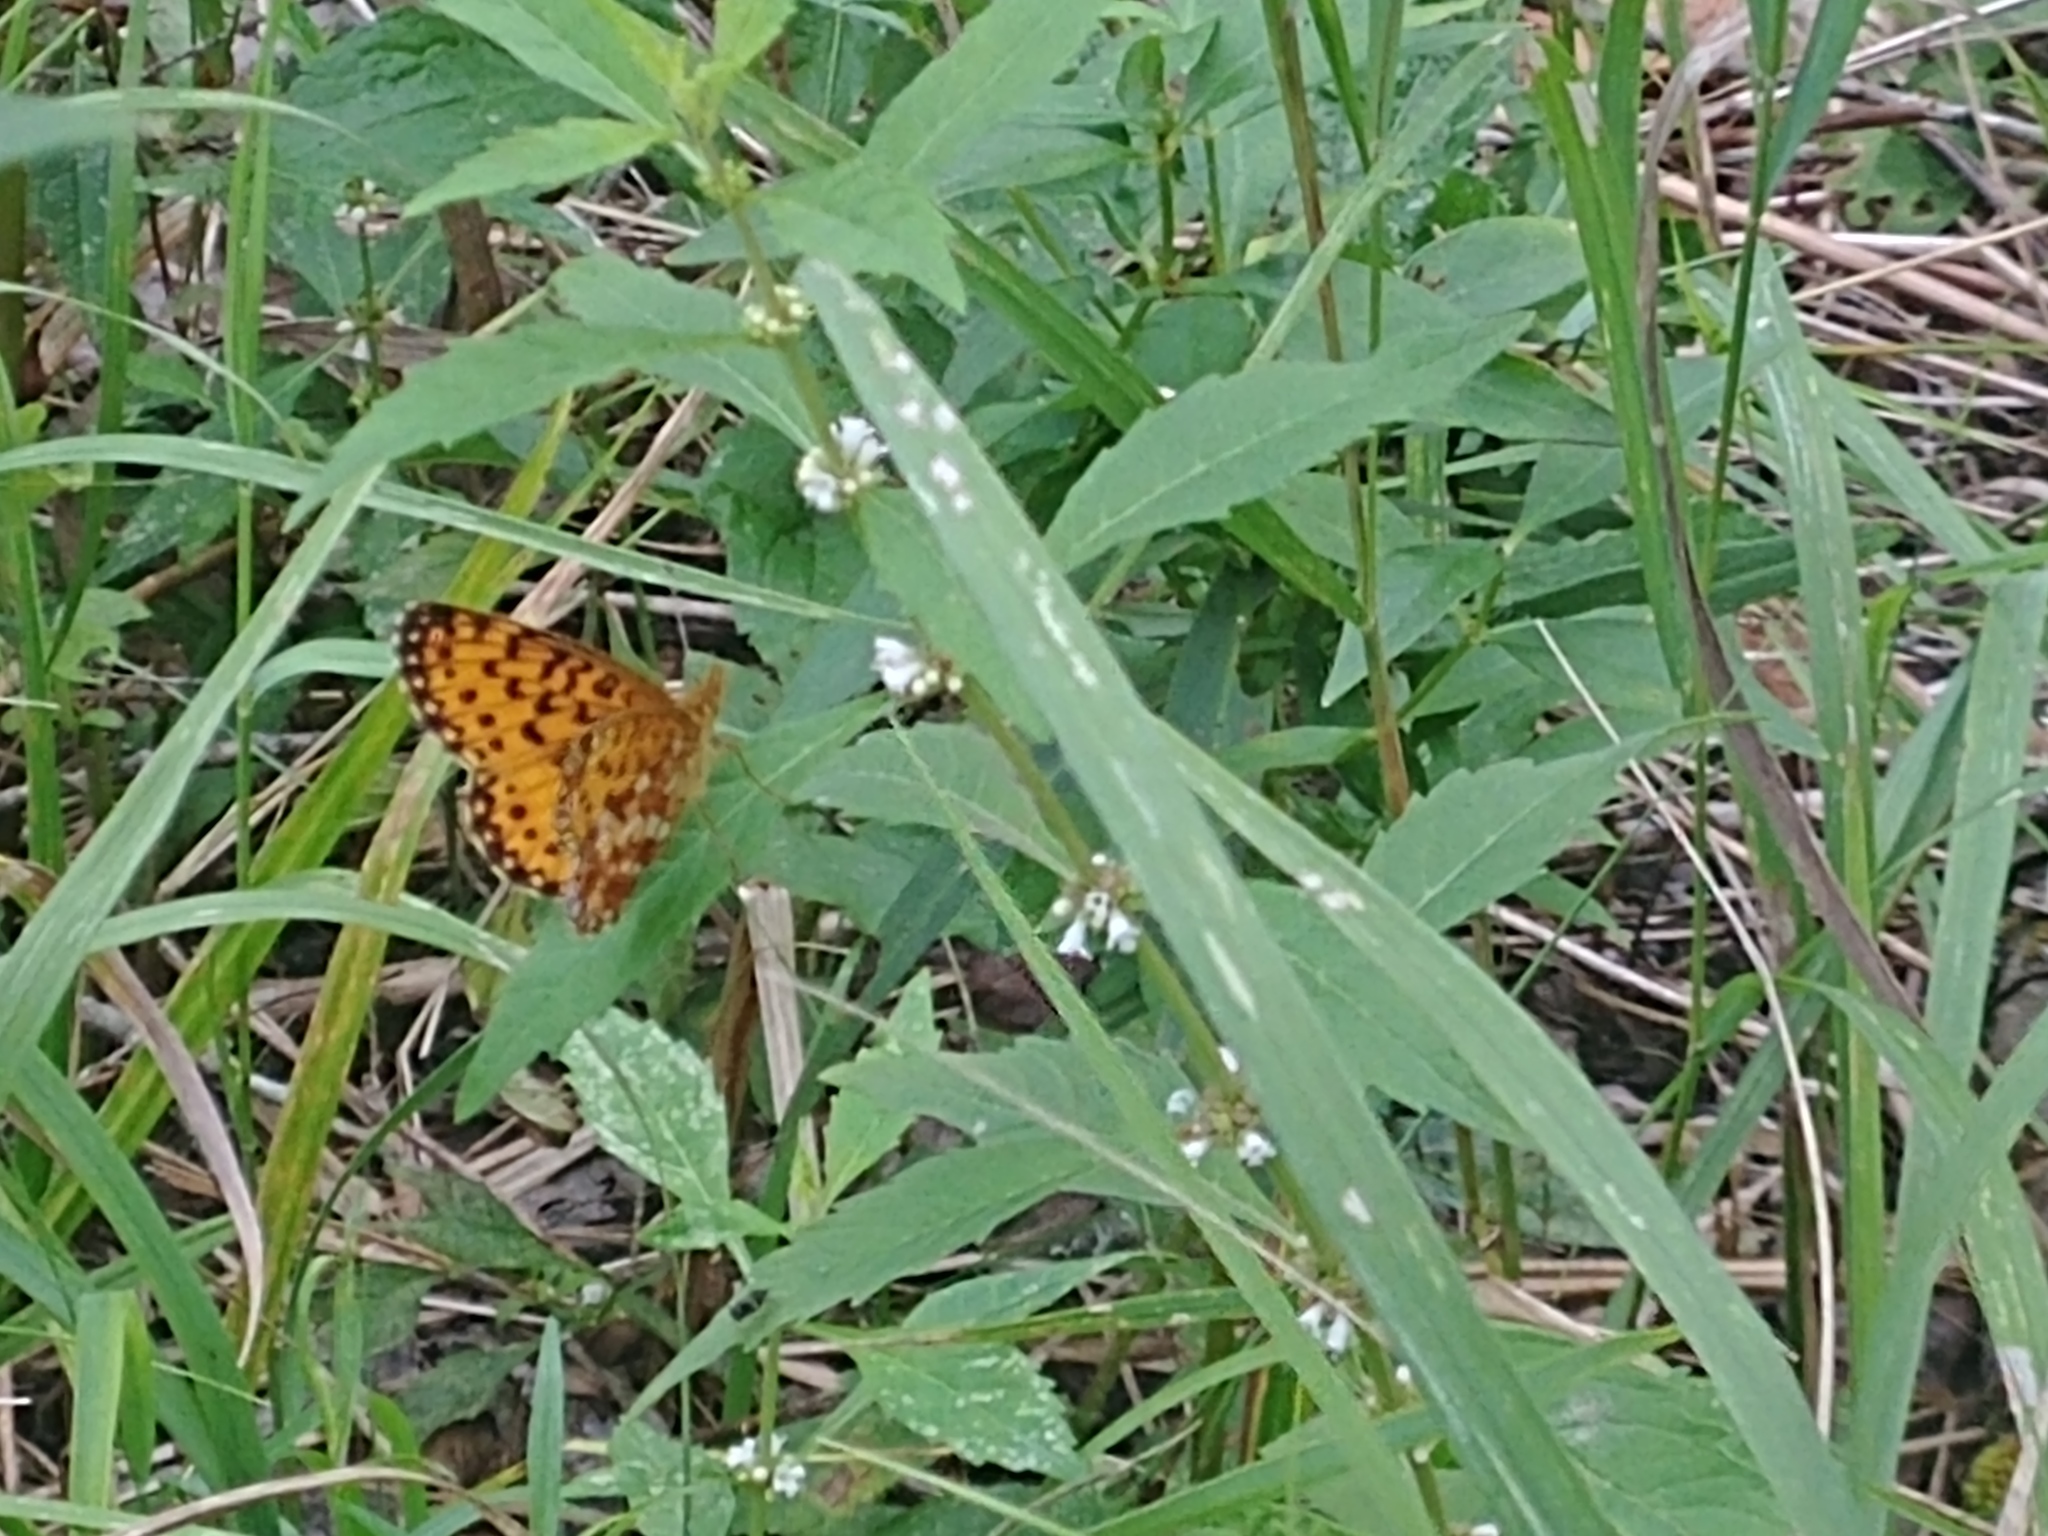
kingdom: Animalia
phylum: Arthropoda
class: Insecta
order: Lepidoptera
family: Nymphalidae
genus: Boloria
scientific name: Boloria
